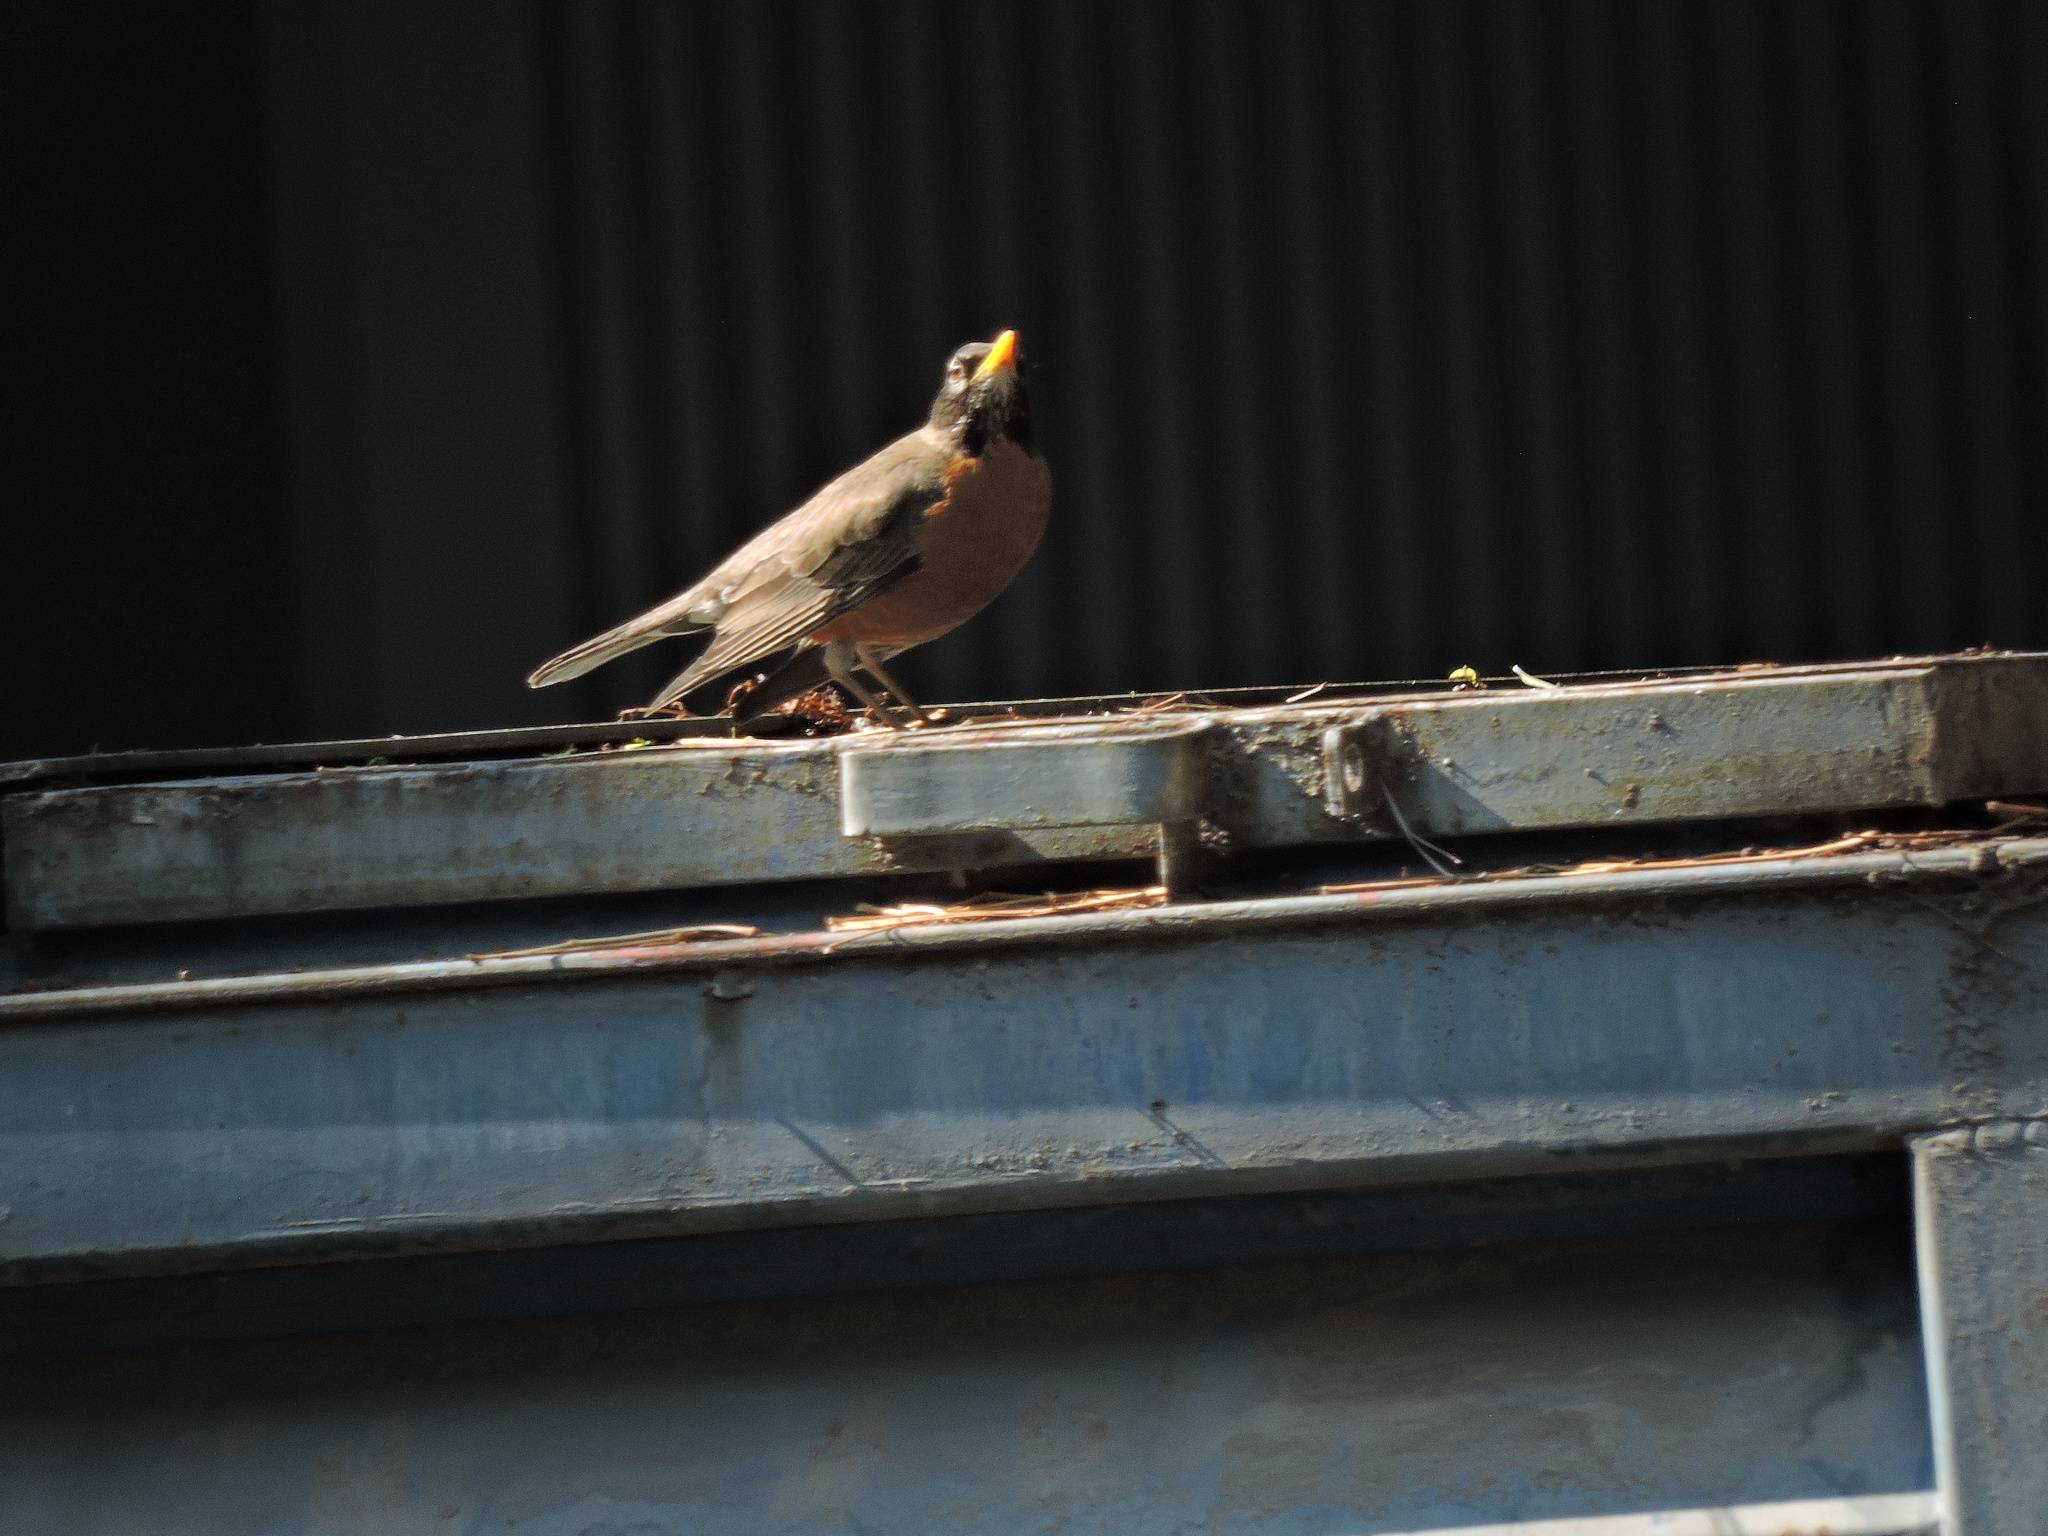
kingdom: Animalia
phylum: Chordata
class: Aves
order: Passeriformes
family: Turdidae
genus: Turdus
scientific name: Turdus migratorius
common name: American robin
